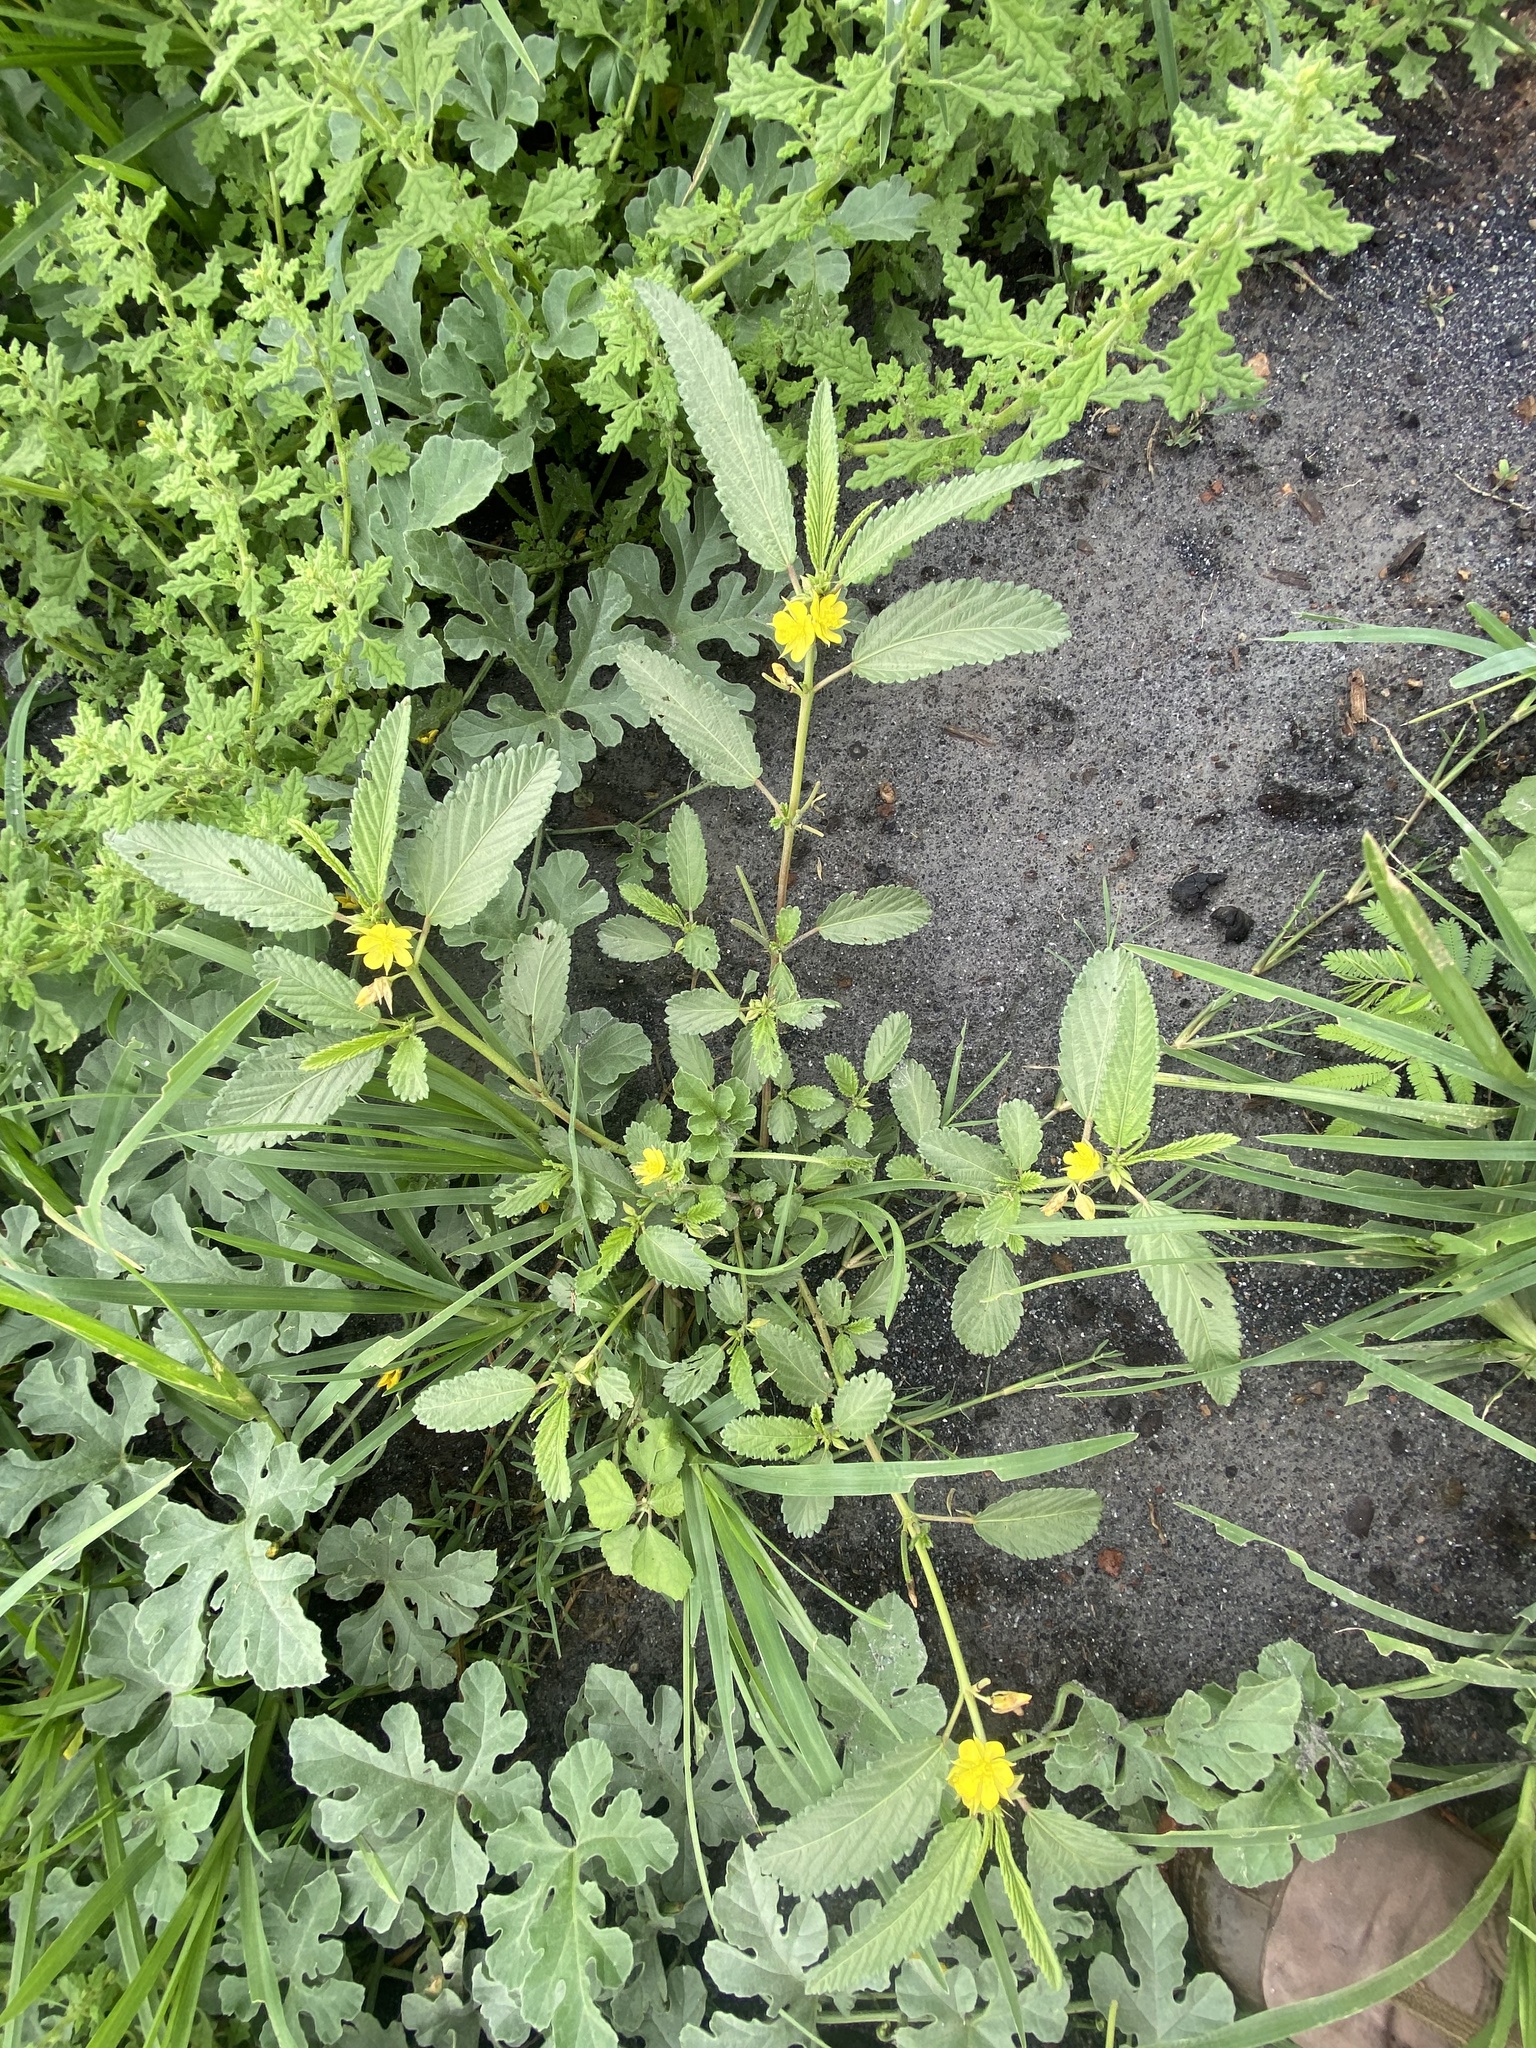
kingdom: Plantae
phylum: Tracheophyta
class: Magnoliopsida
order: Malvales
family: Malvaceae
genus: Corchorus
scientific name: Corchorus confusus
